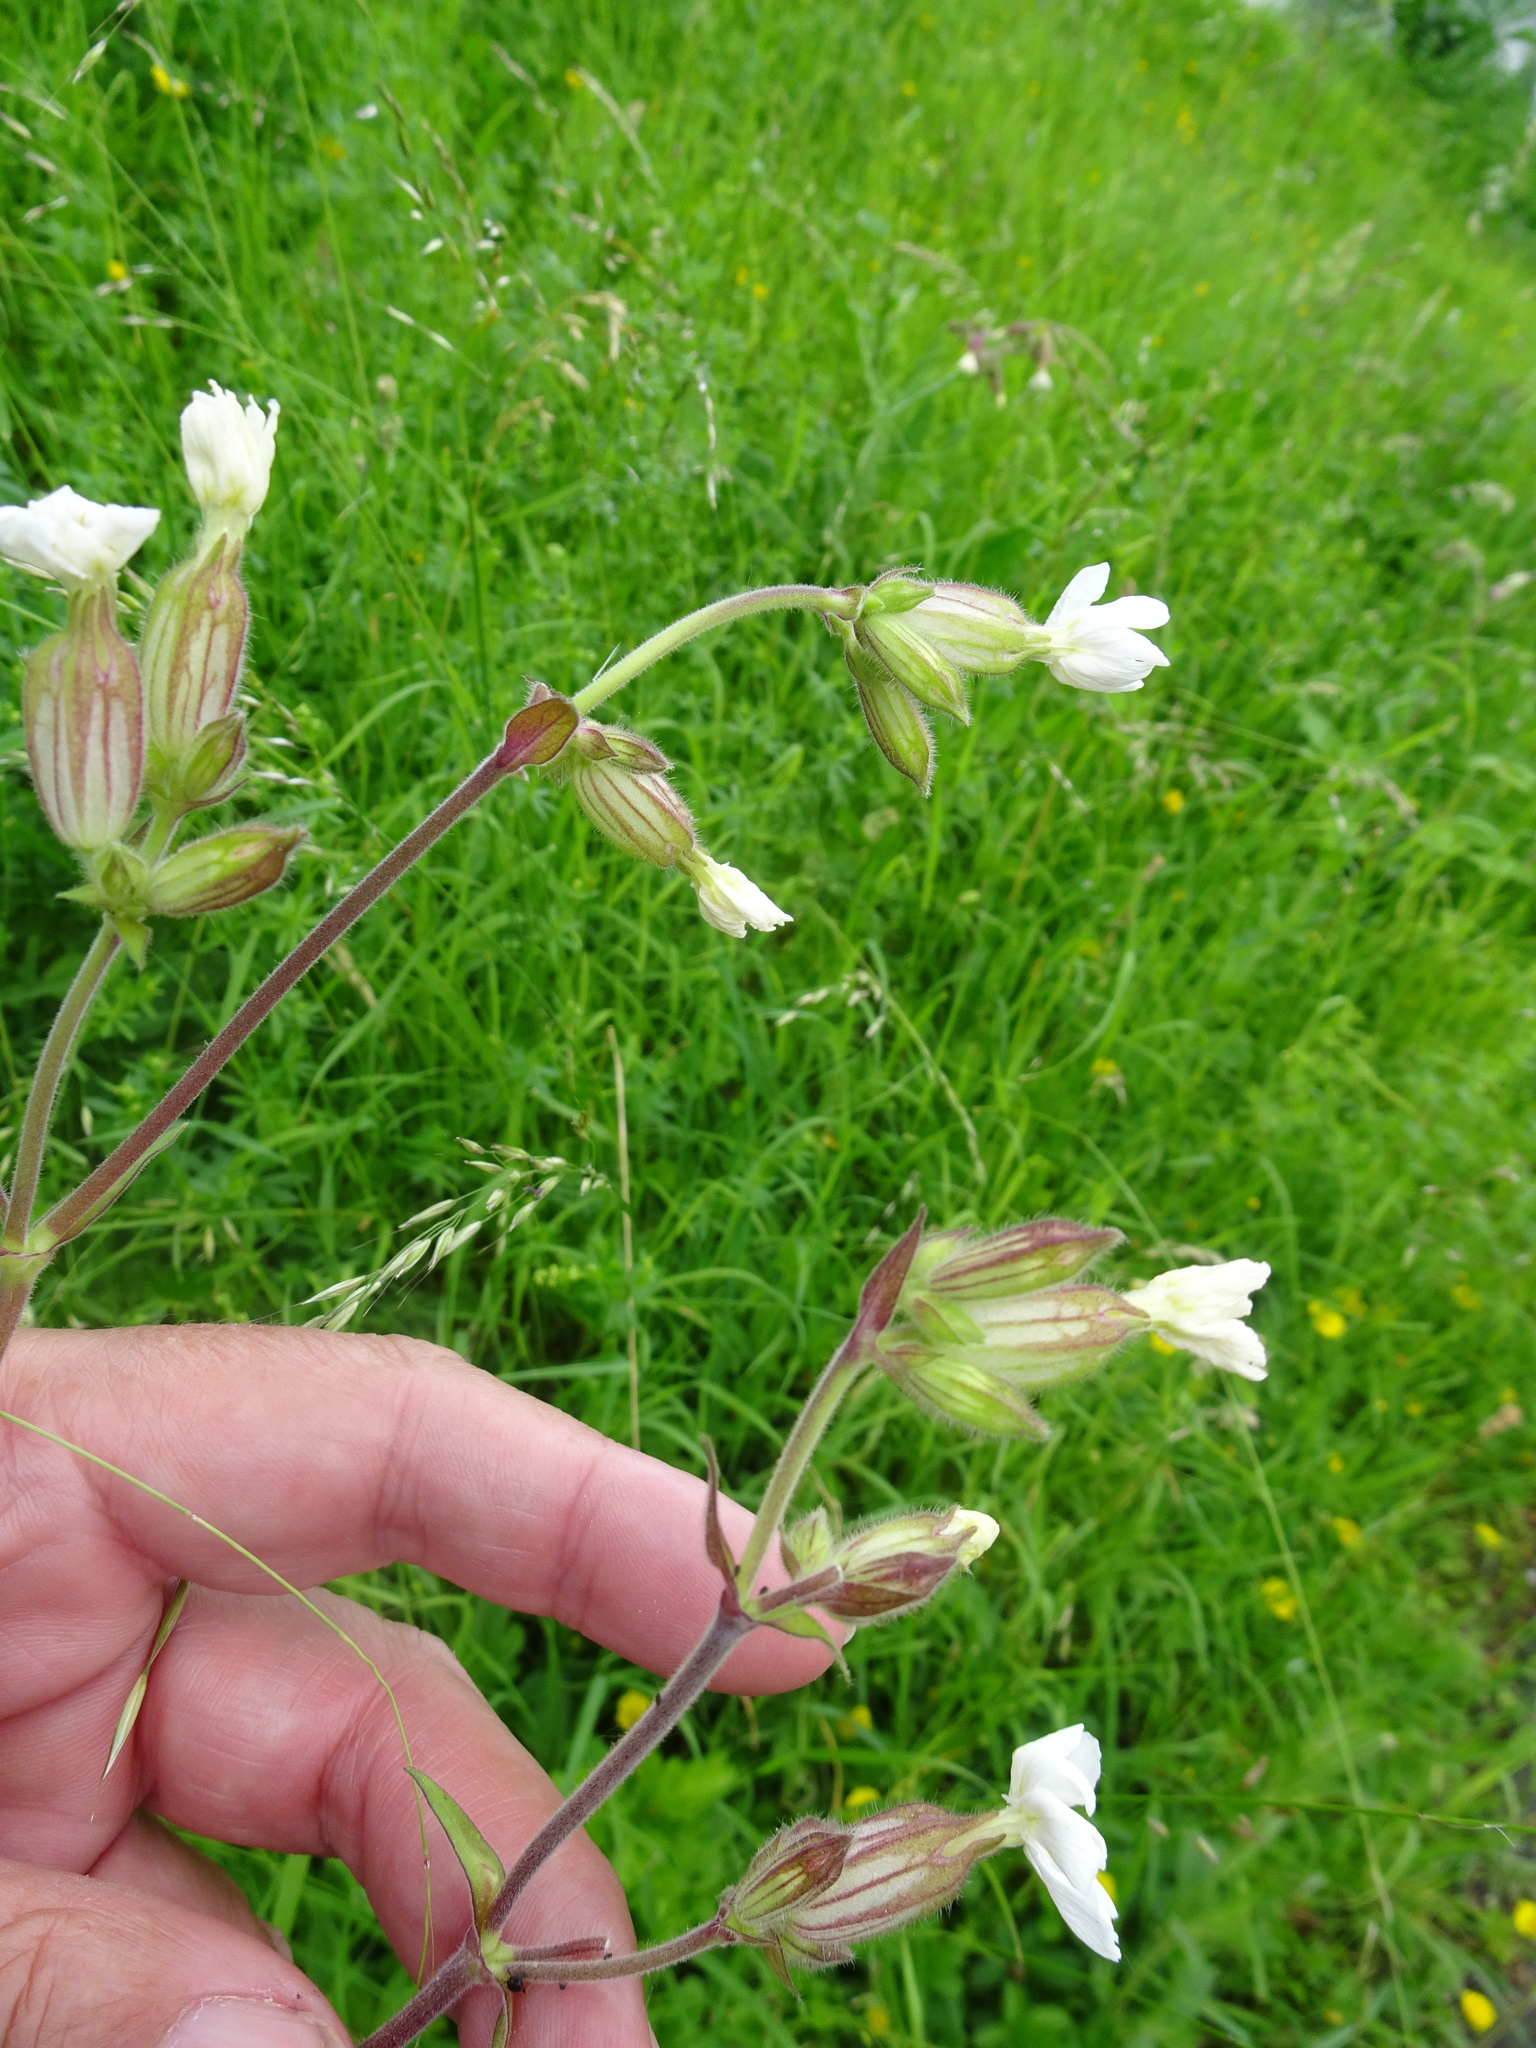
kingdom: Plantae
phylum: Tracheophyta
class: Magnoliopsida
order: Caryophyllales
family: Caryophyllaceae
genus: Silene
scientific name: Silene latifolia
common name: White campion
